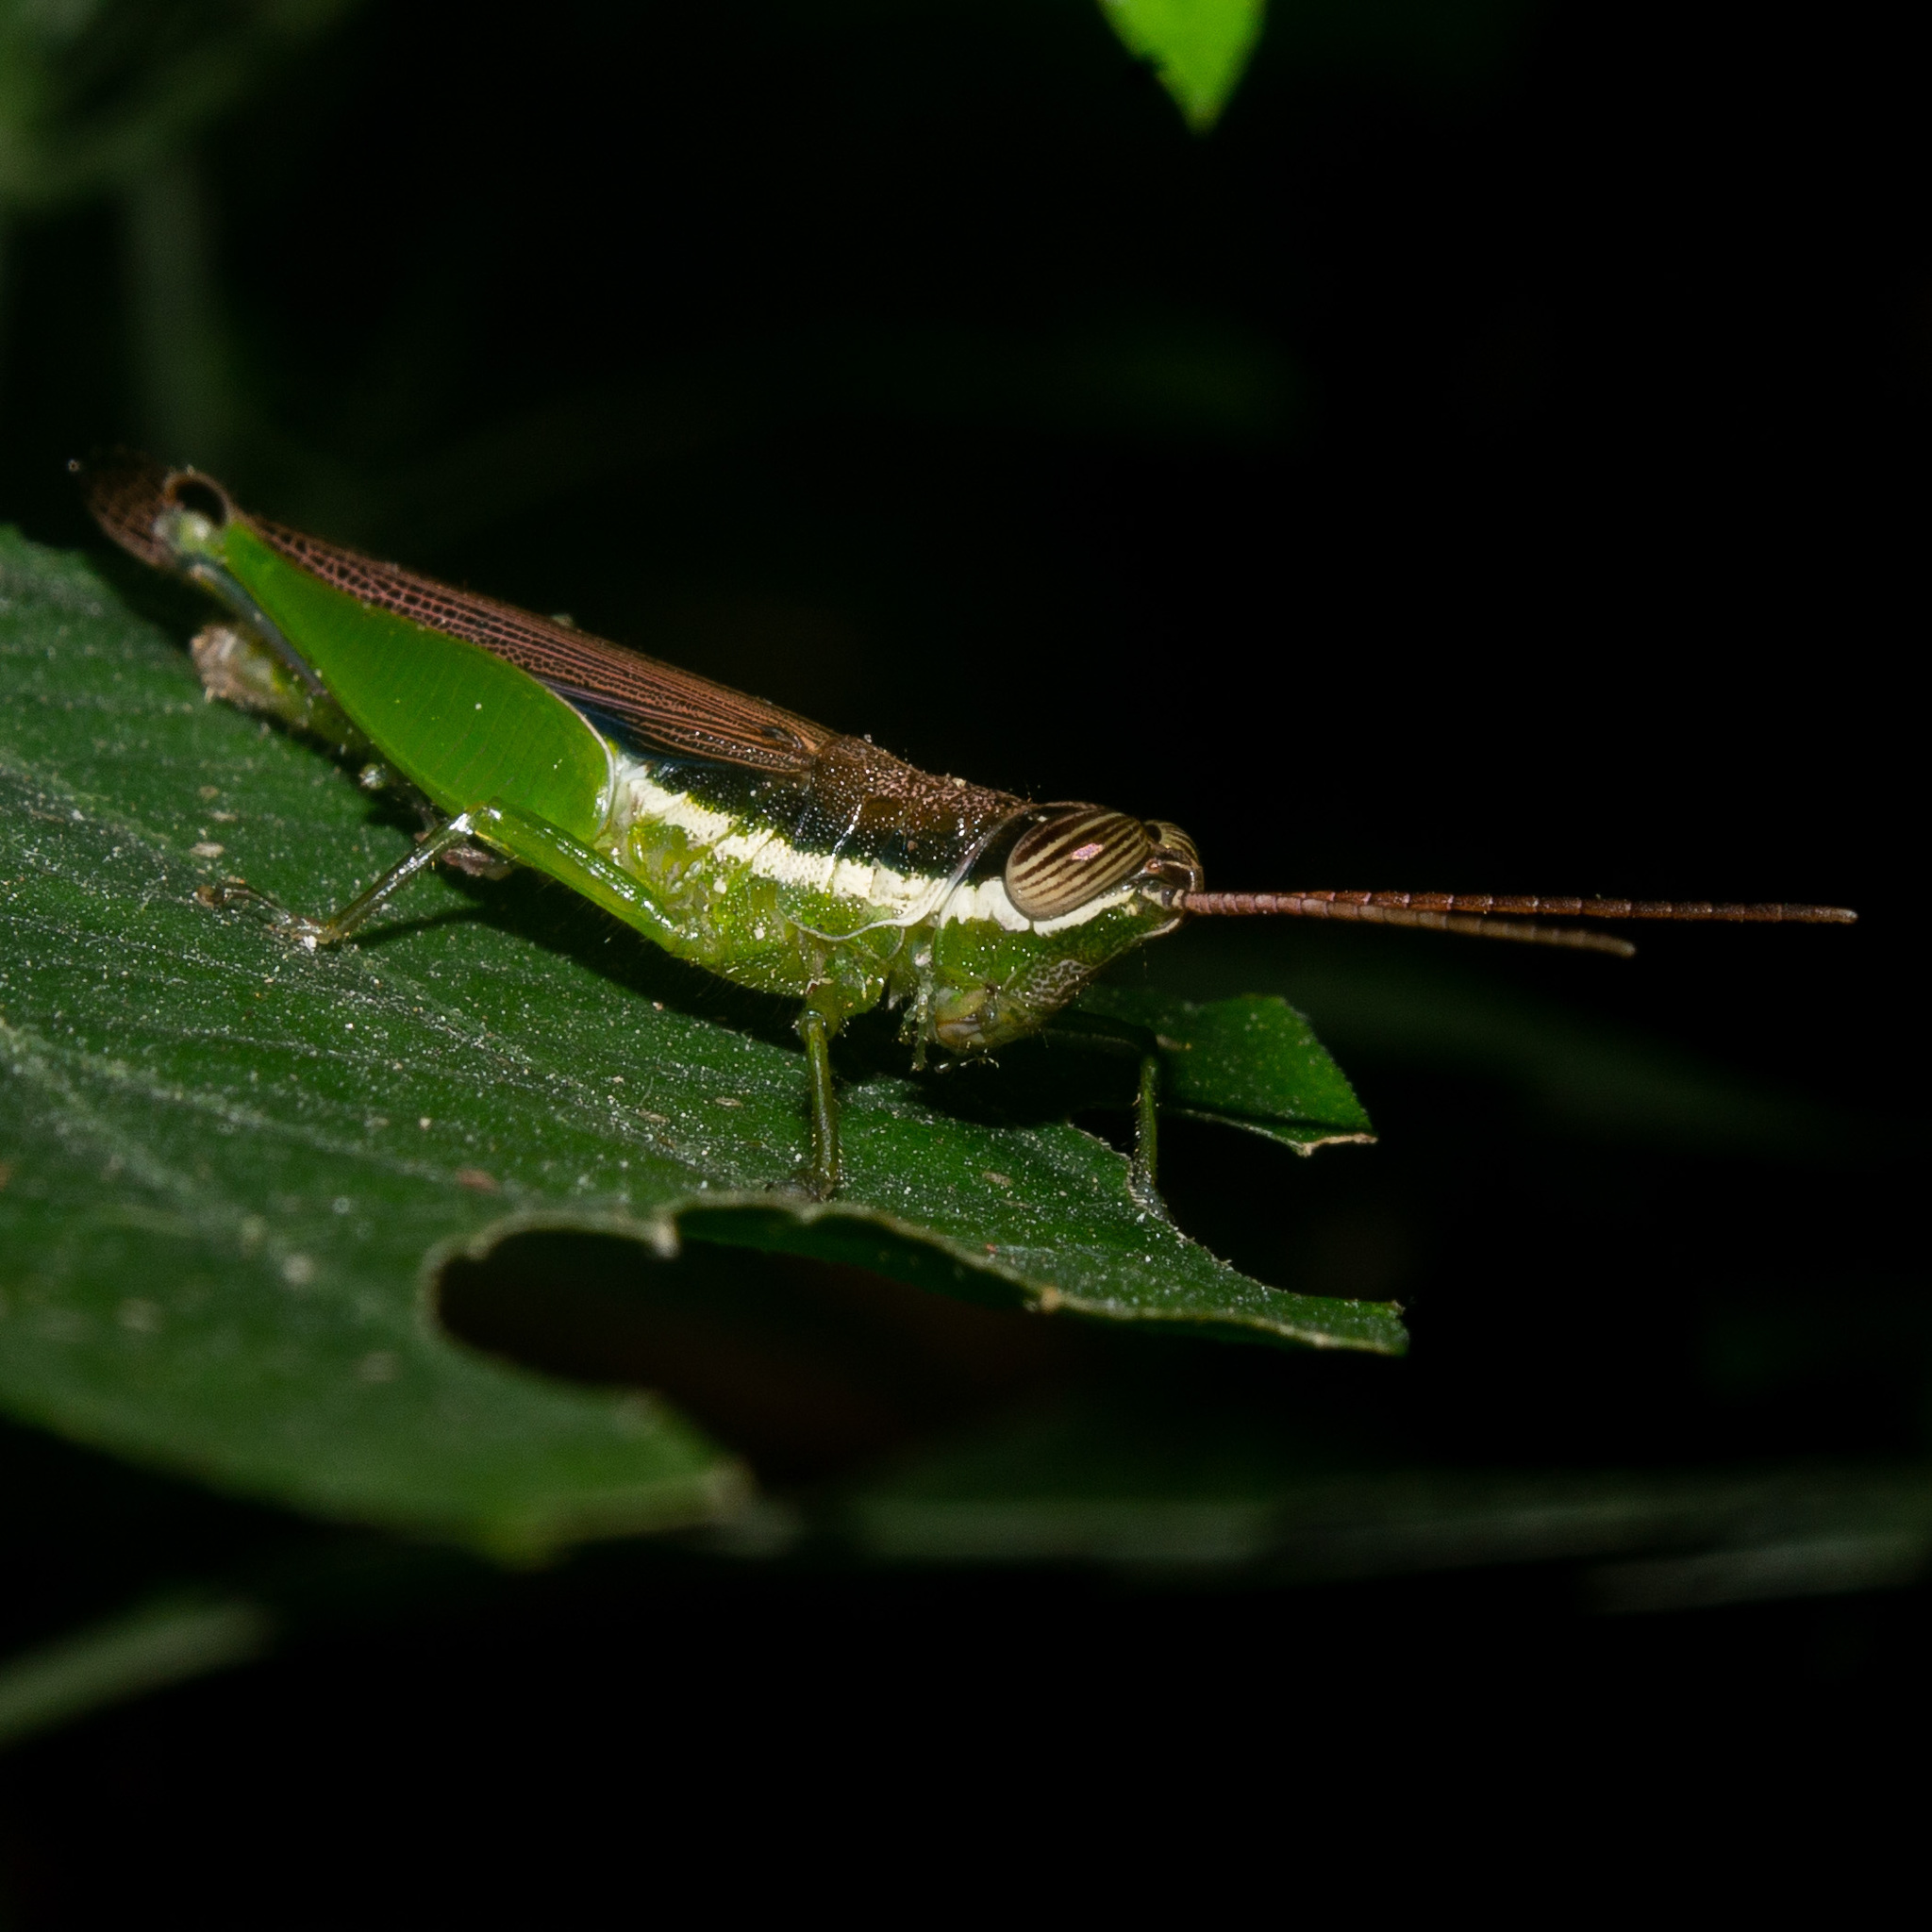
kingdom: Animalia
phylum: Arthropoda
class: Insecta
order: Orthoptera
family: Acrididae
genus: Stenopola
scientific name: Stenopola puncticeps
